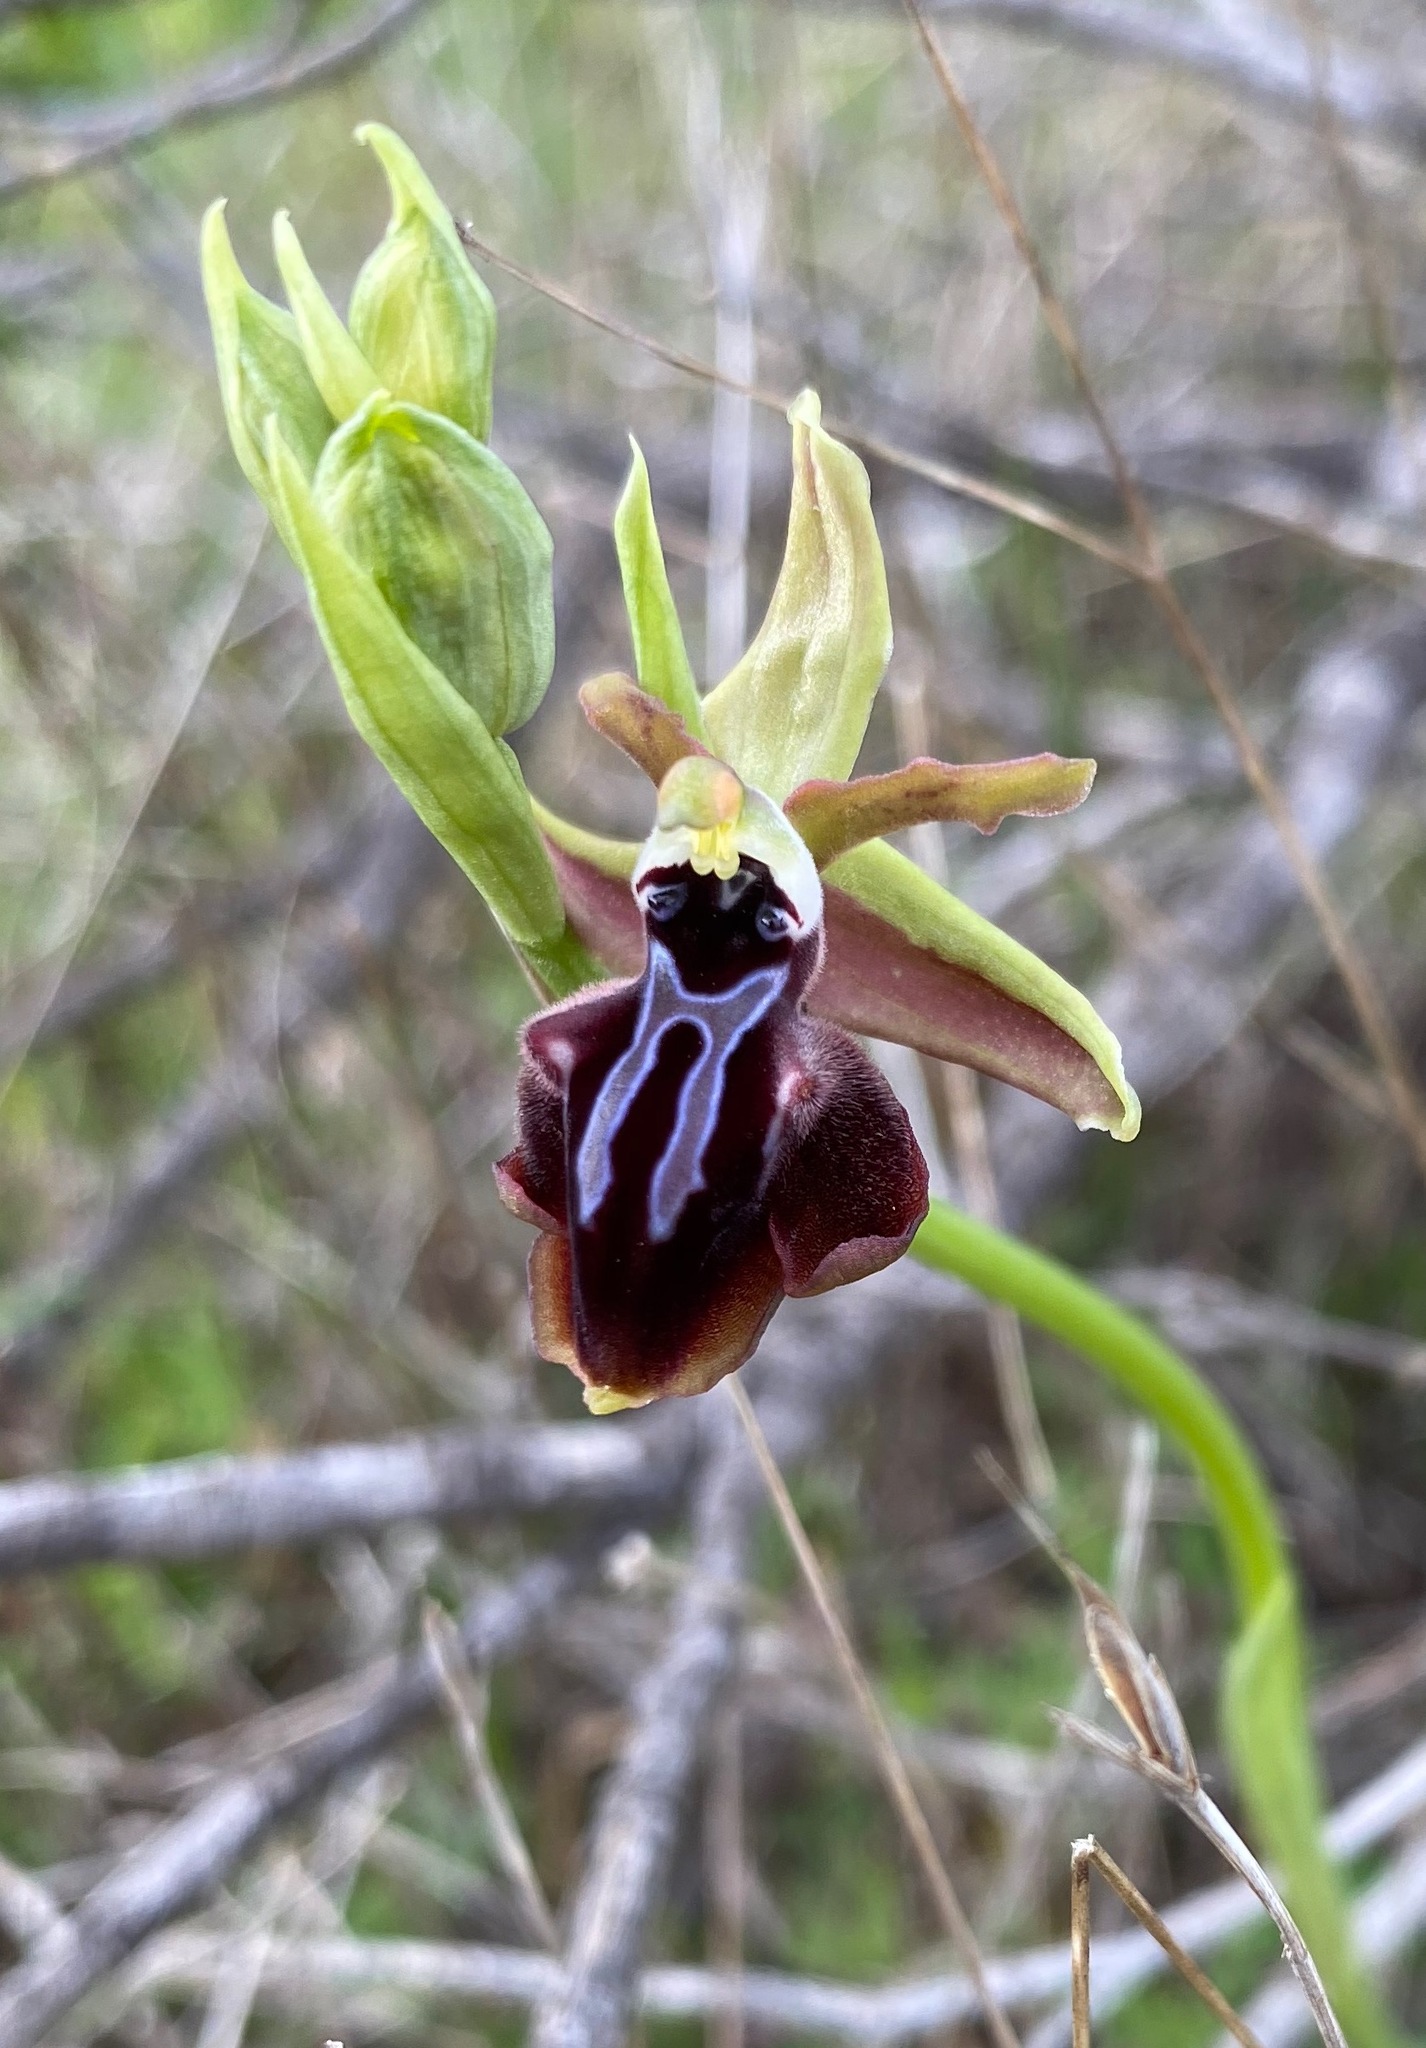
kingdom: Plantae
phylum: Tracheophyta
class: Liliopsida
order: Asparagales
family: Orchidaceae
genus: Ophrys
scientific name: Ophrys sphegodes
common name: Early spider-orchid
